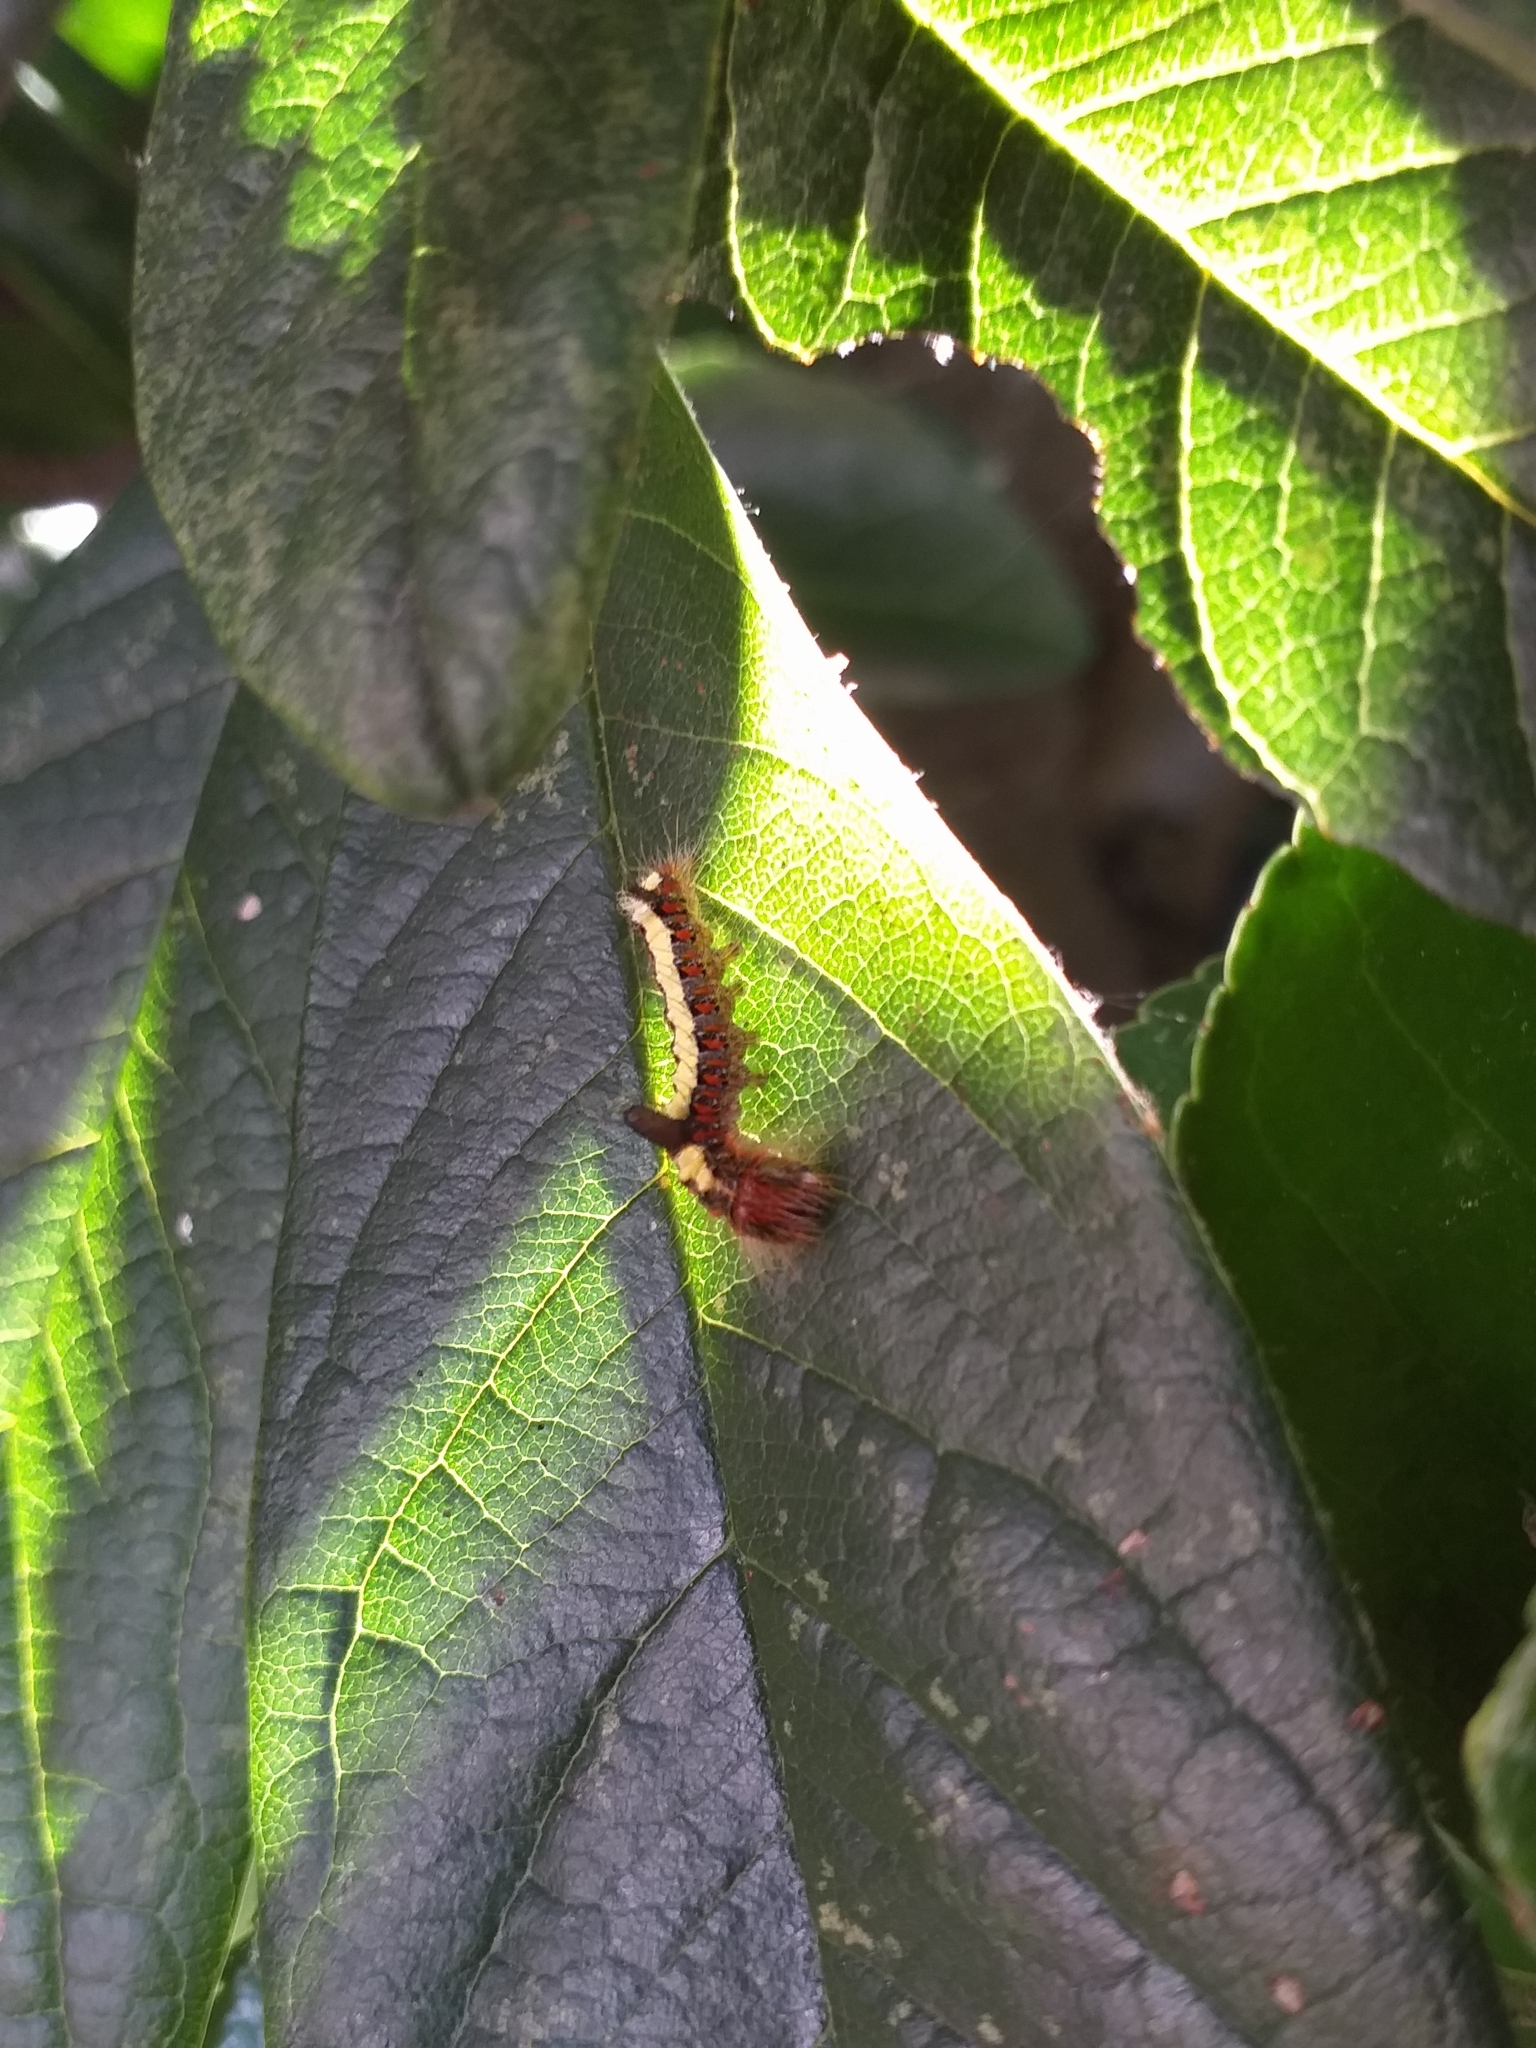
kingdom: Animalia
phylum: Arthropoda
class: Insecta
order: Lepidoptera
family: Noctuidae
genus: Acronicta
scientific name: Acronicta psi
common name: Grey dagger
